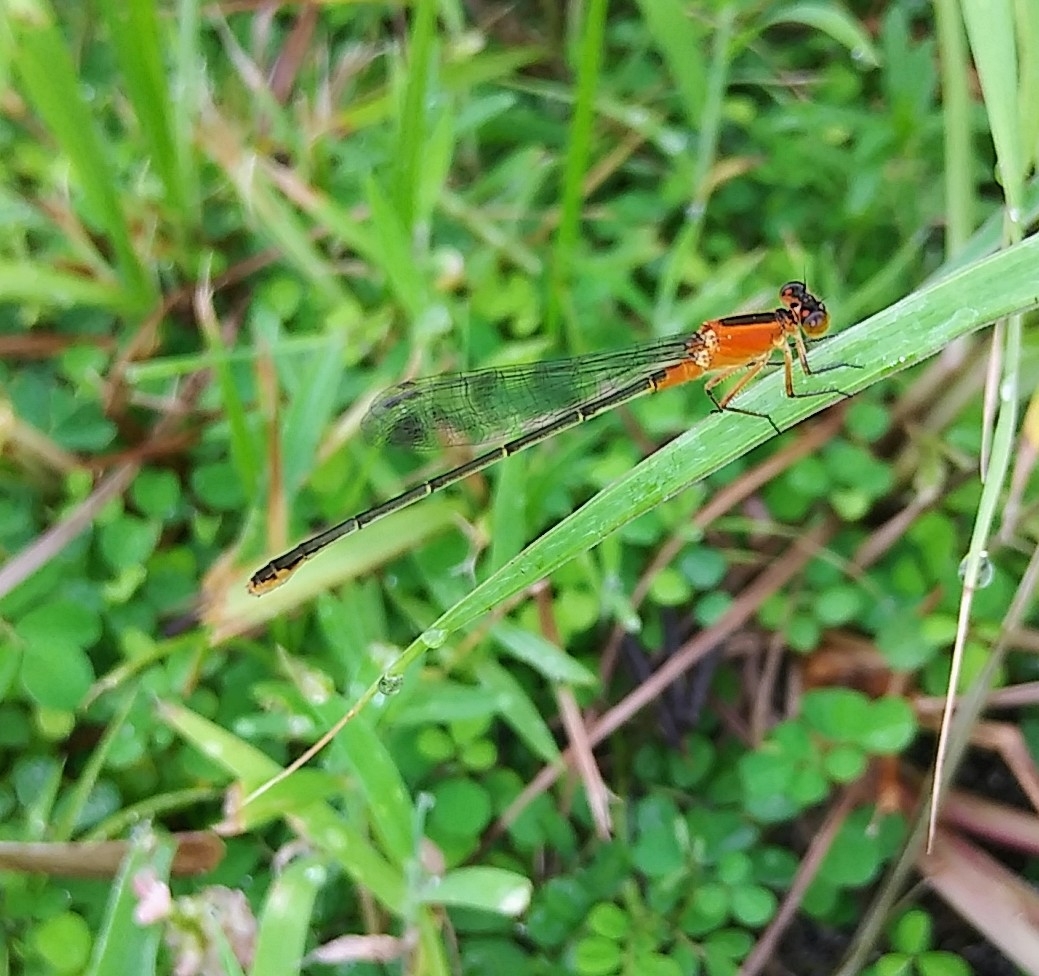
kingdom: Animalia
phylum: Arthropoda
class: Insecta
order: Odonata
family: Coenagrionidae
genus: Ischnura
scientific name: Ischnura ramburii
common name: Rambur's forktail
